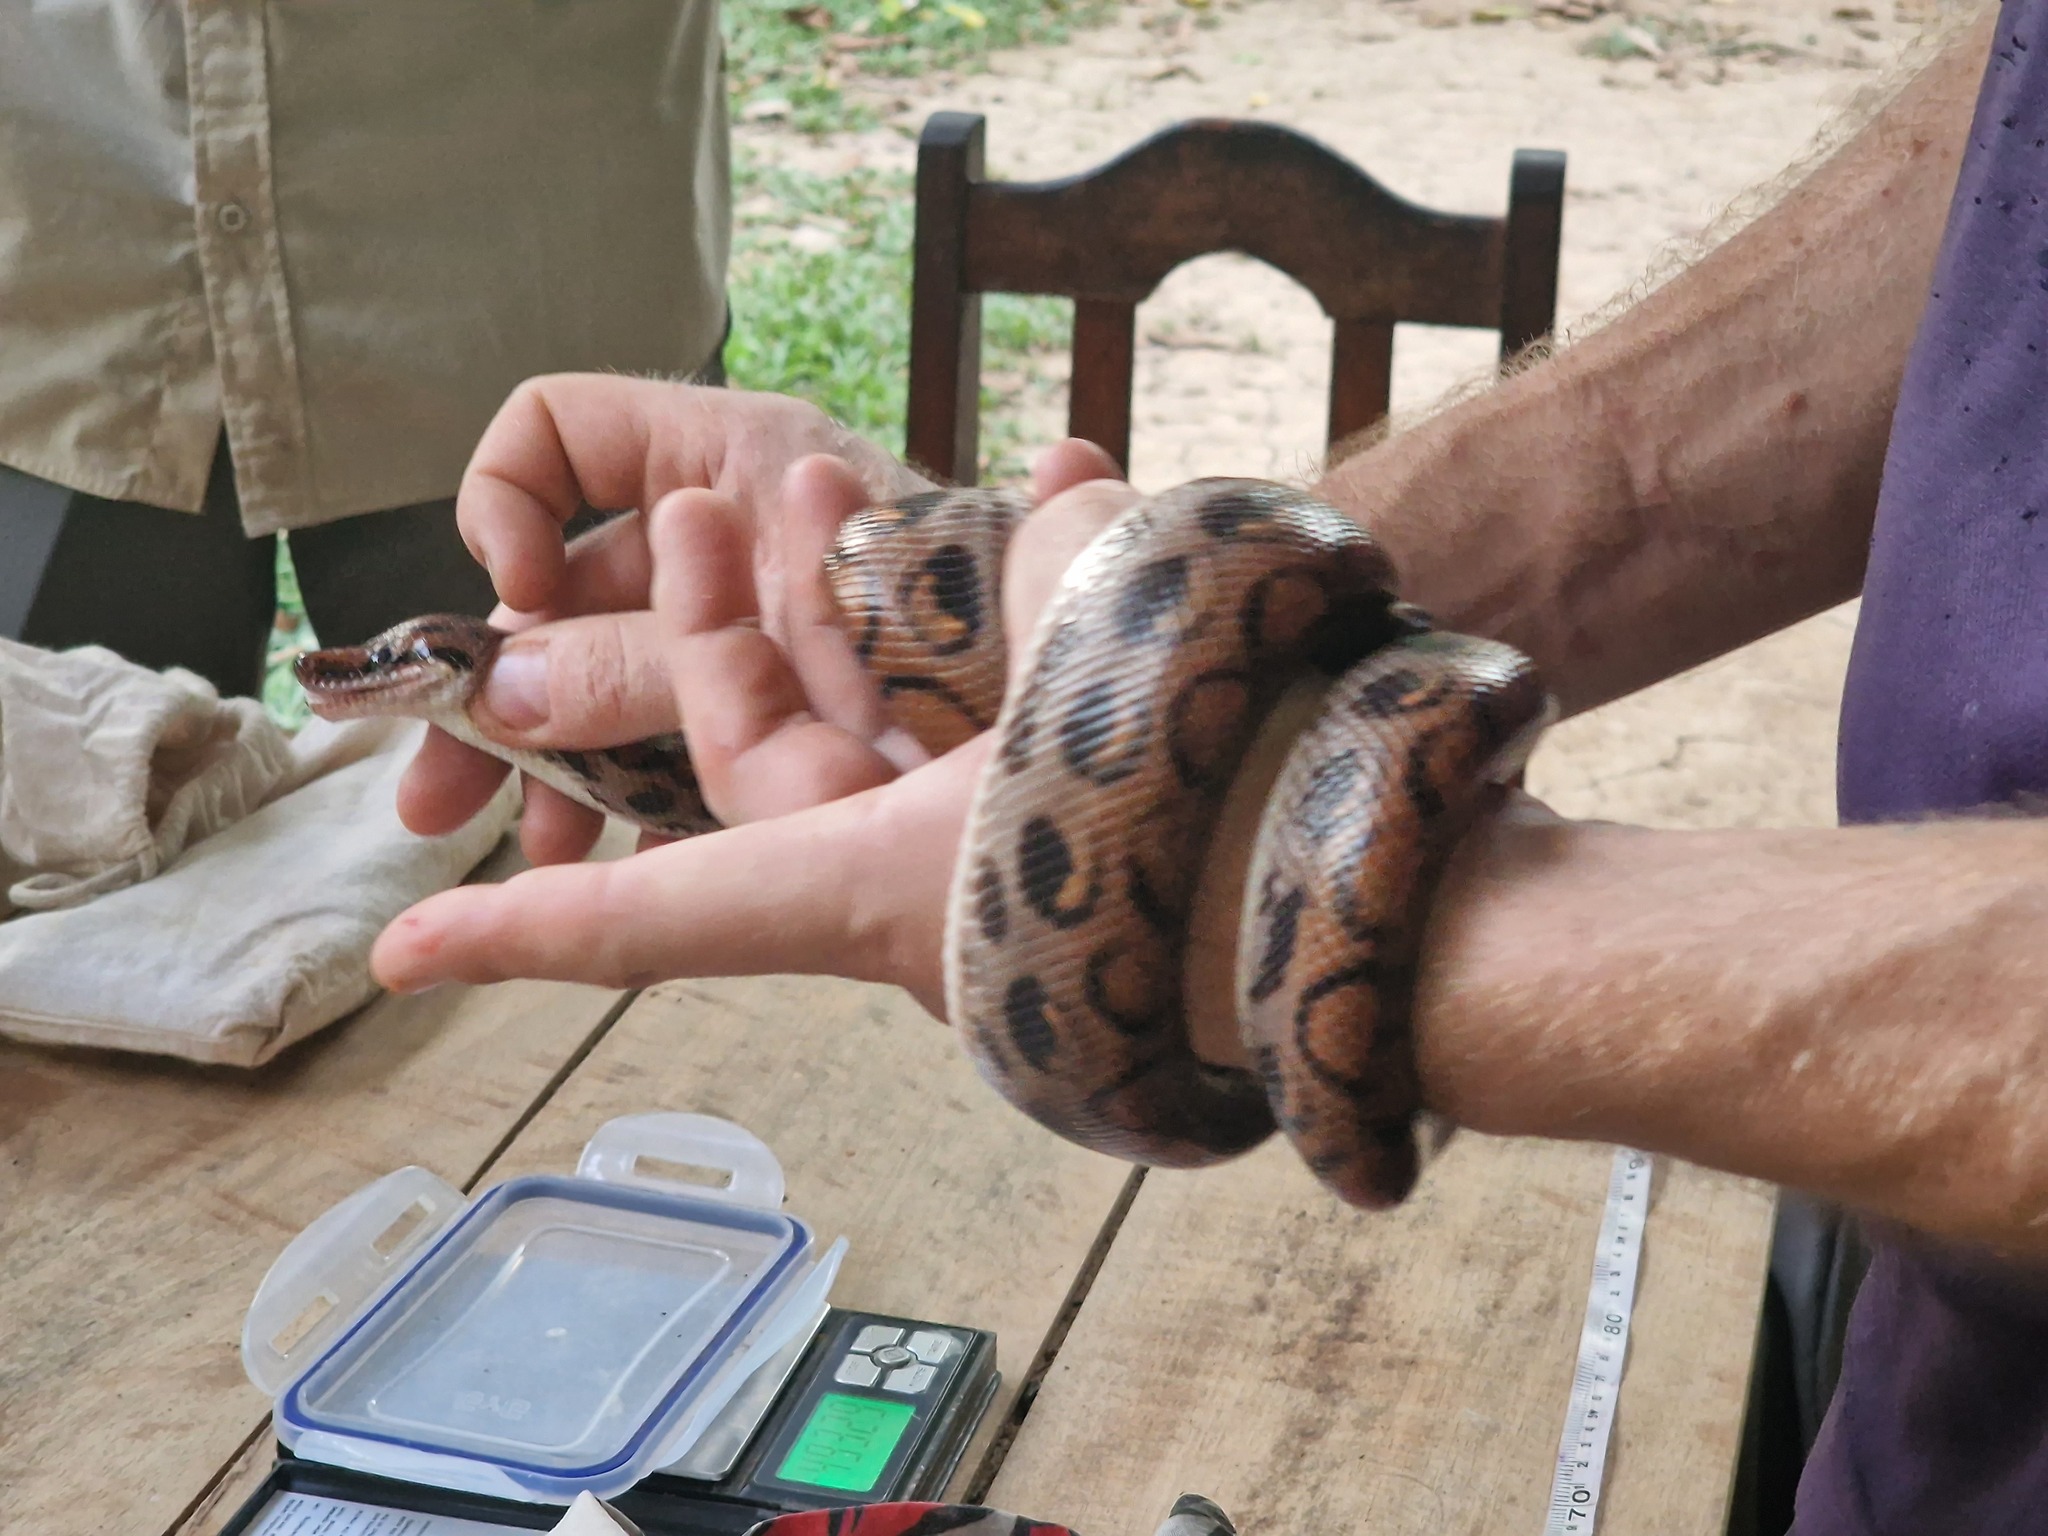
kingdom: Animalia
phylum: Chordata
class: Squamata
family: Boidae
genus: Epicrates
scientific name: Epicrates cenchria
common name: Rainbow boa
